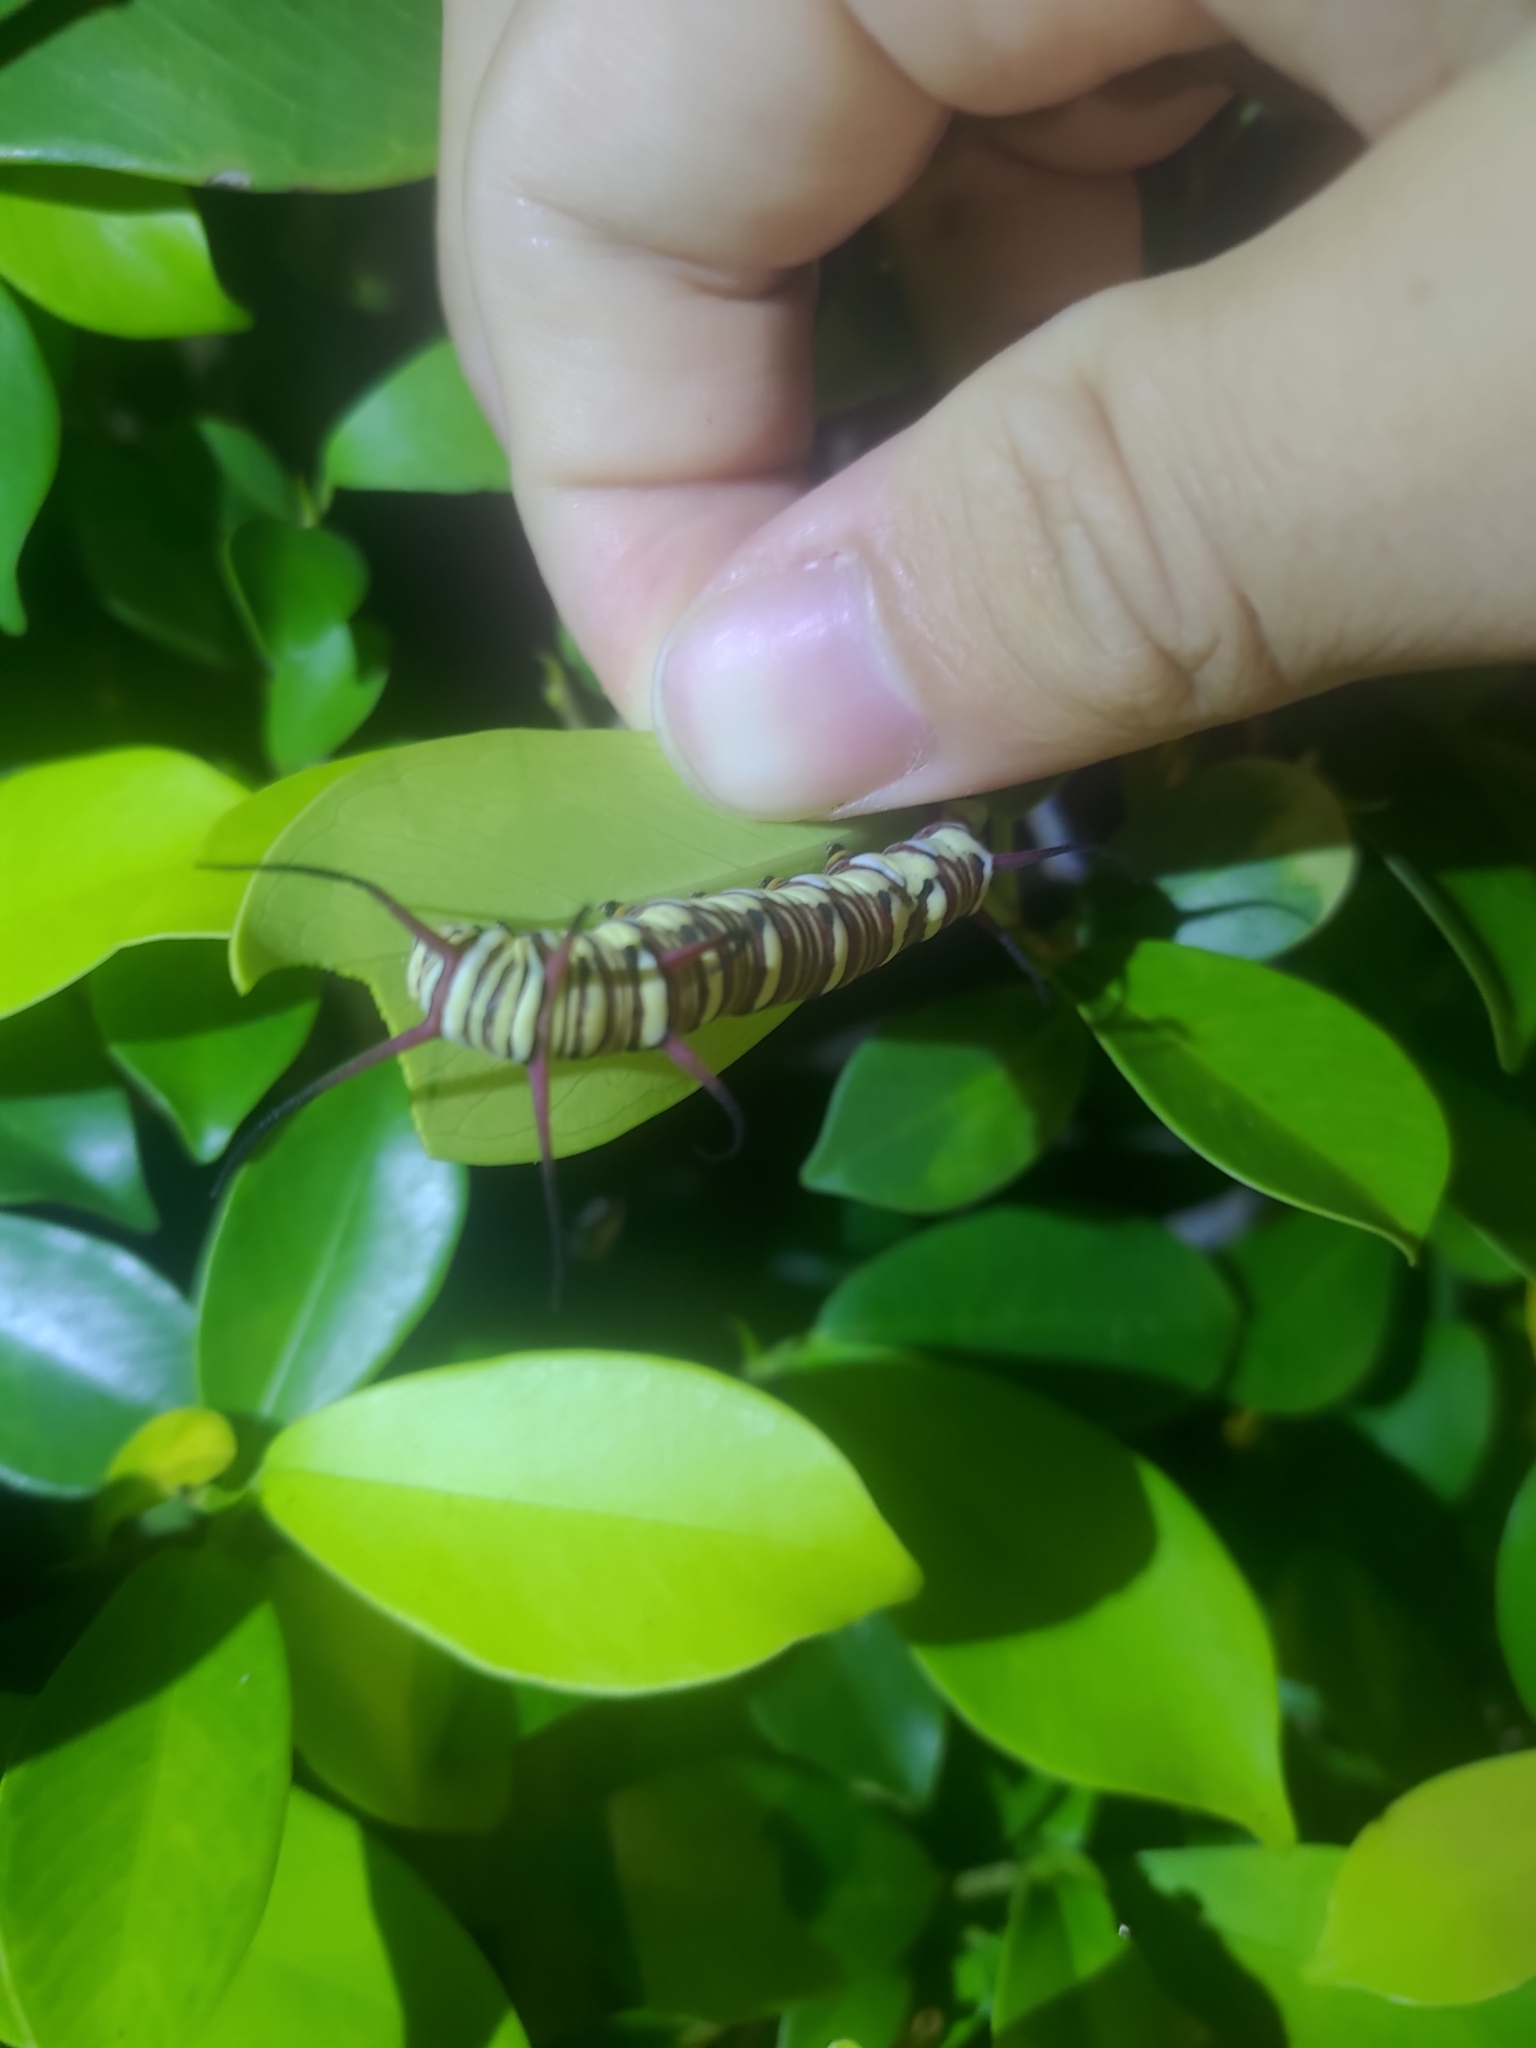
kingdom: Animalia
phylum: Arthropoda
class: Insecta
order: Lepidoptera
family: Nymphalidae
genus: Euploea
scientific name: Euploea mulciber
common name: Striped blue crow butterfly
